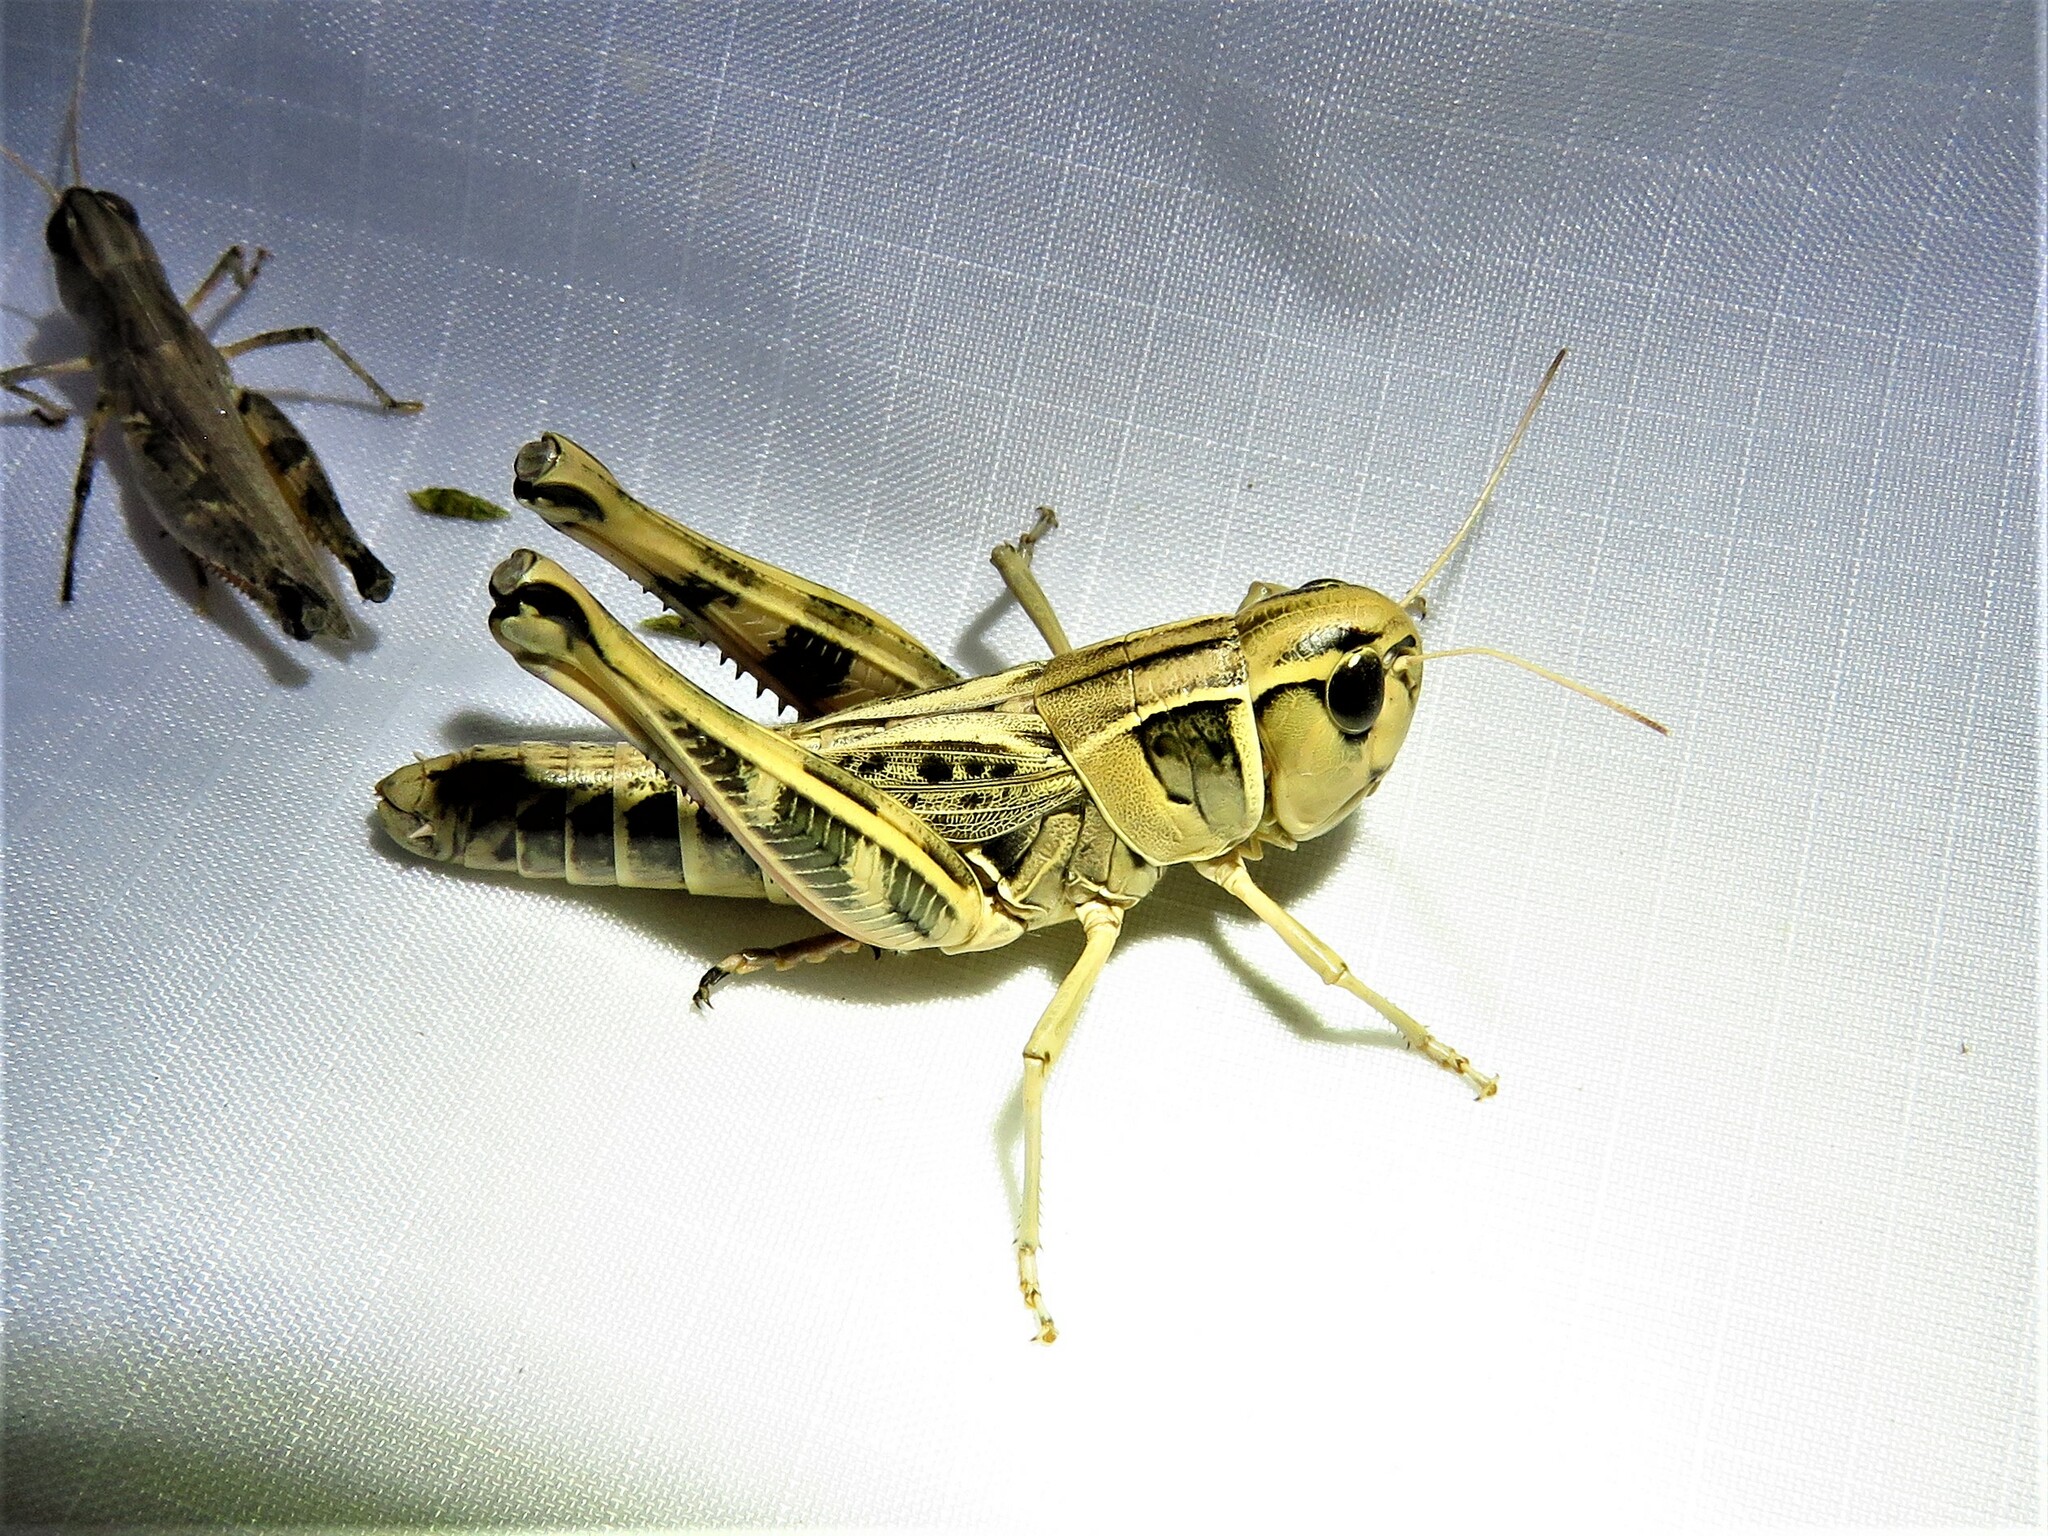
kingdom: Animalia
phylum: Arthropoda
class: Insecta
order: Orthoptera
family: Acrididae
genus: Boopedon
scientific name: Boopedon gracile
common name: Graceful range grasshopper
